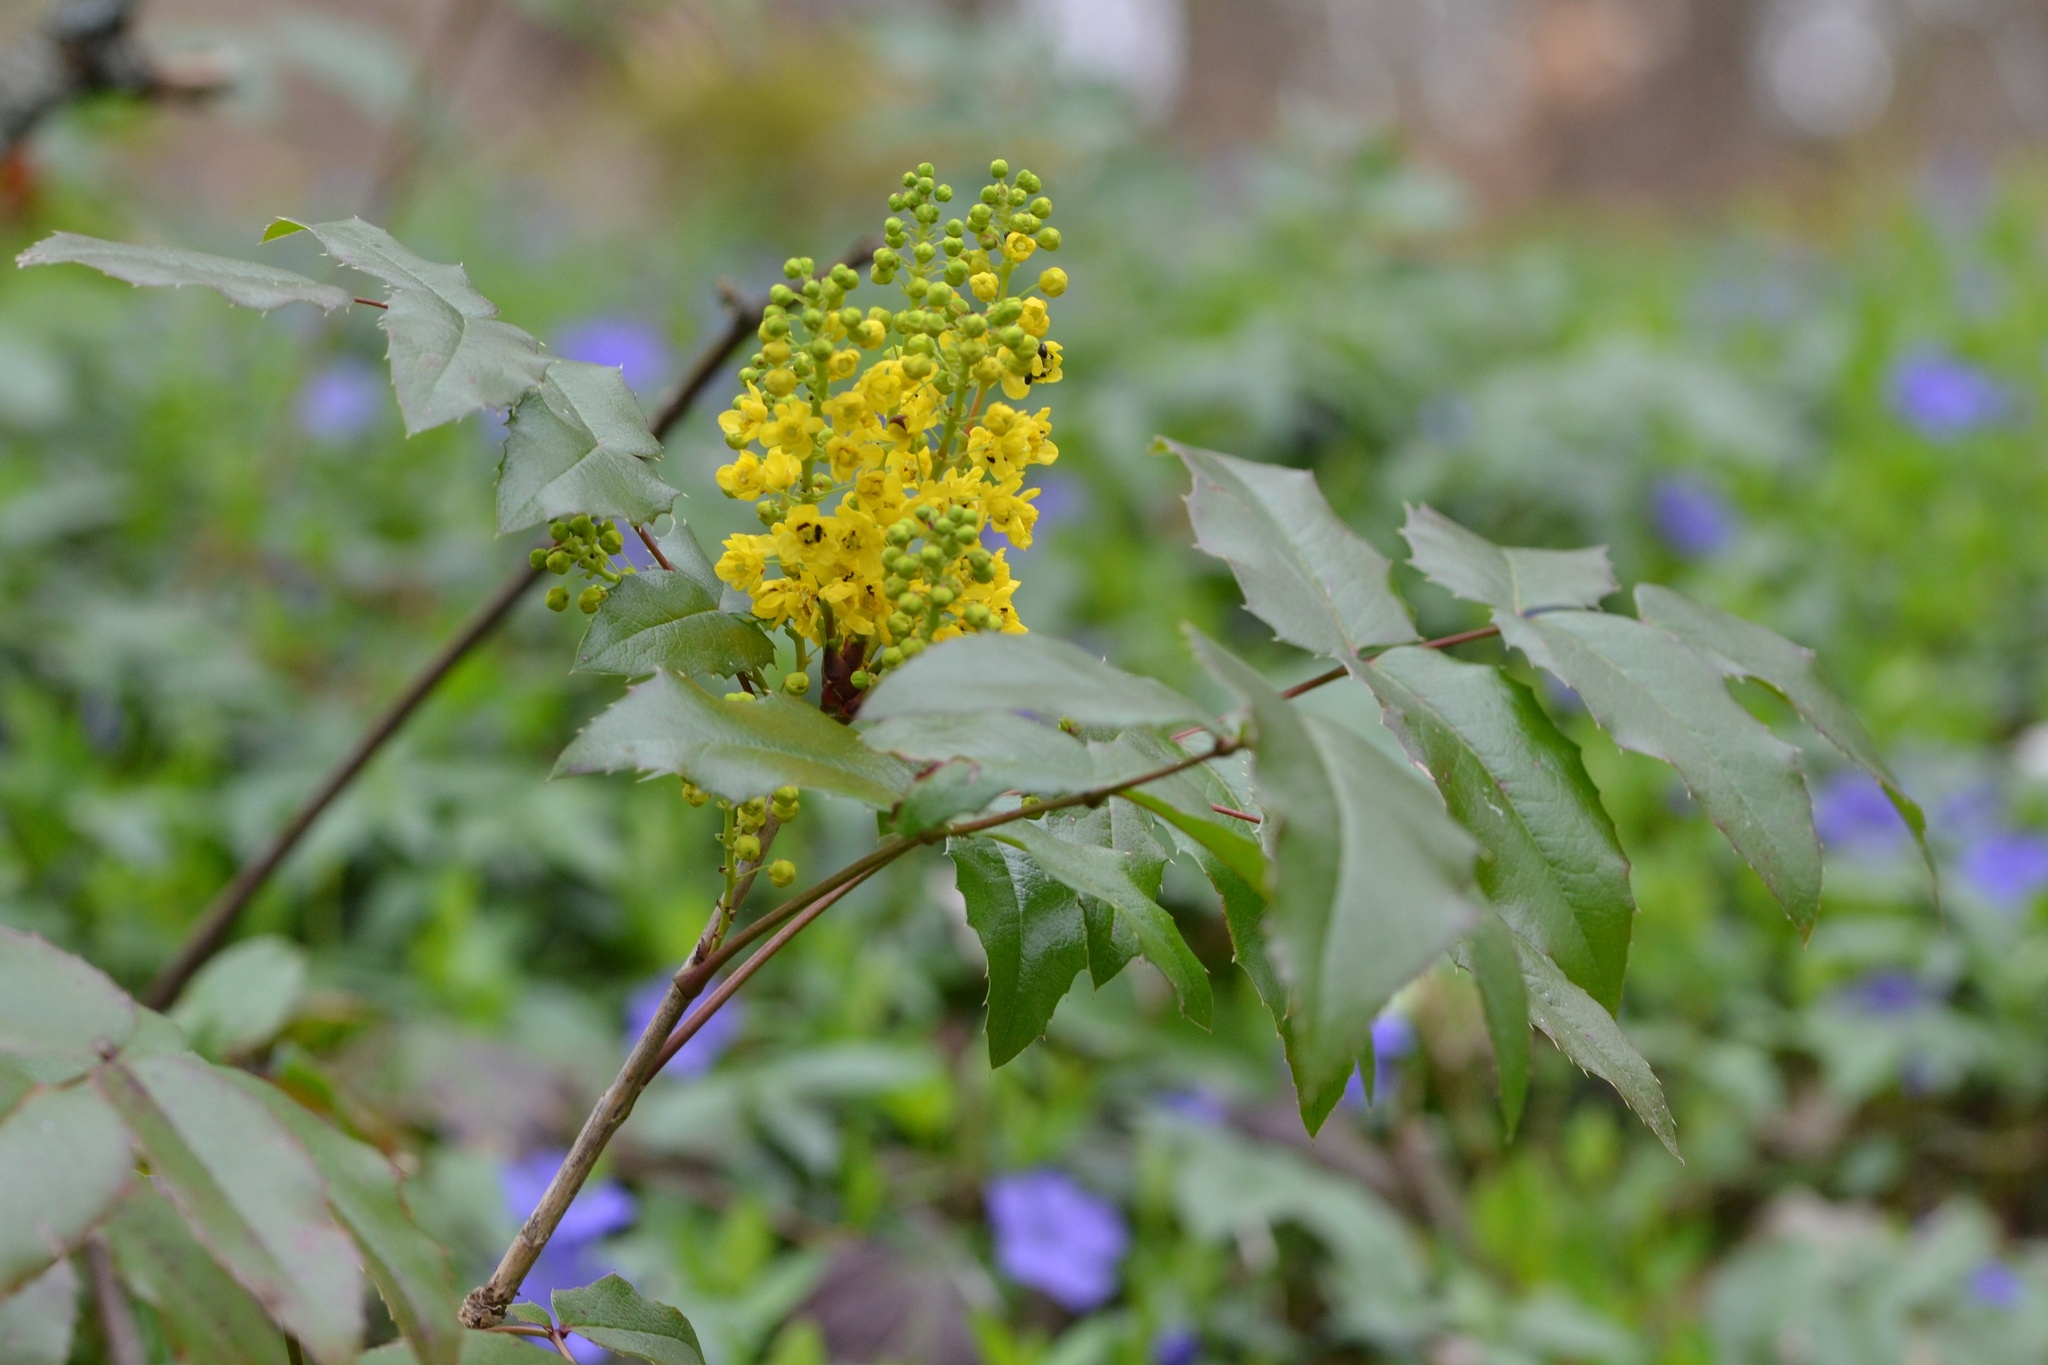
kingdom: Plantae
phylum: Tracheophyta
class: Magnoliopsida
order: Ranunculales
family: Berberidaceae
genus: Mahonia
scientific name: Mahonia aquifolium
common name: Oregon-grape
